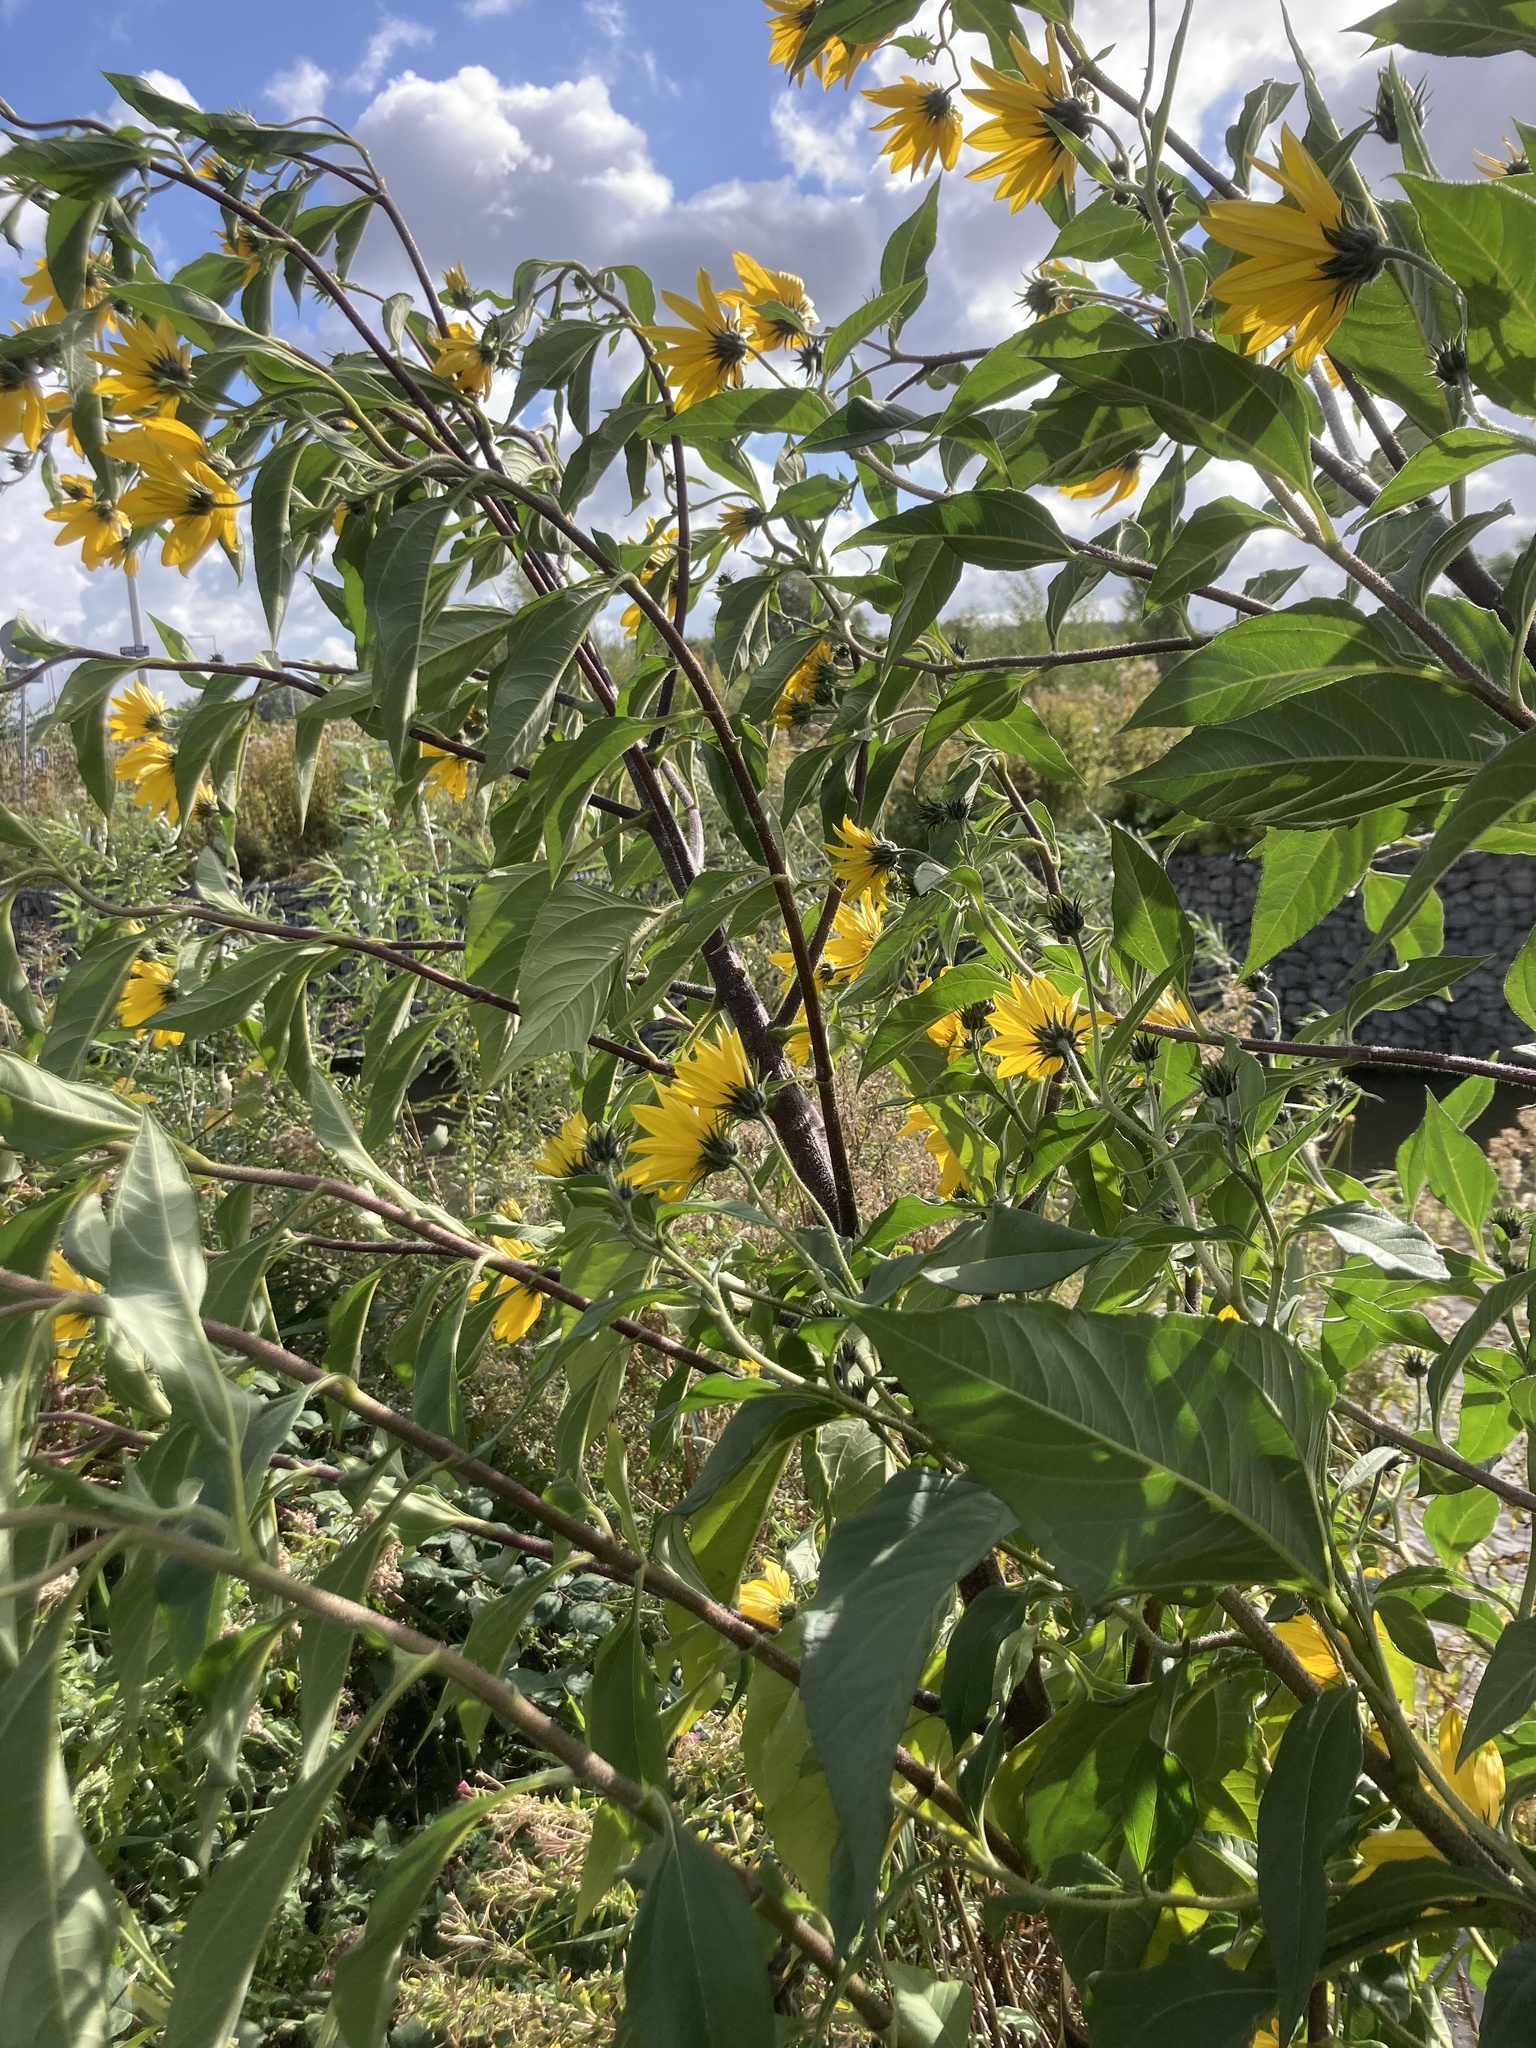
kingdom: Plantae
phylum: Tracheophyta
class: Magnoliopsida
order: Asterales
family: Asteraceae
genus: Helianthus
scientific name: Helianthus tuberosus
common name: Jerusalem artichoke
